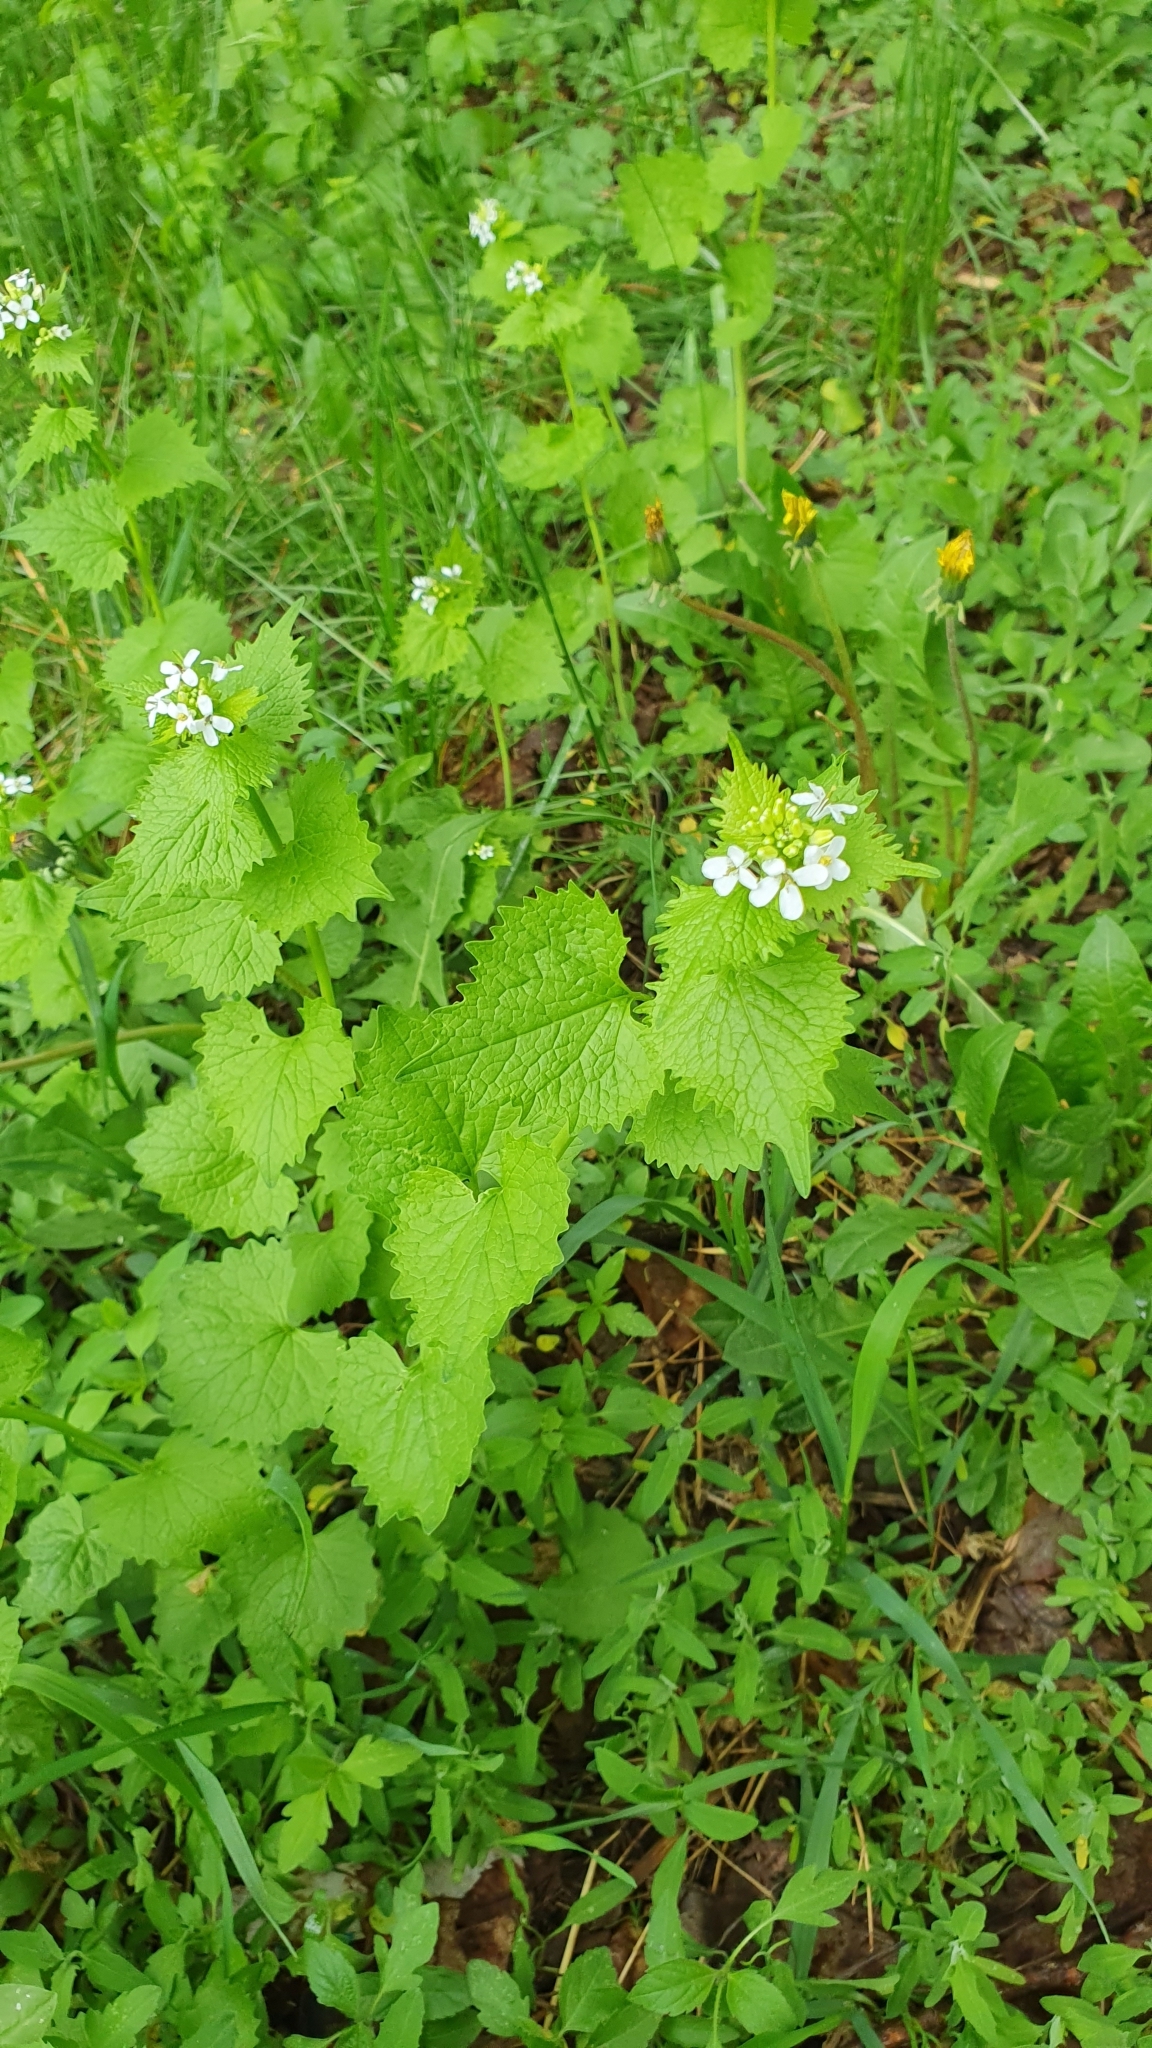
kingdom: Plantae
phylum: Tracheophyta
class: Magnoliopsida
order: Brassicales
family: Brassicaceae
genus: Alliaria
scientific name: Alliaria petiolata
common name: Garlic mustard
